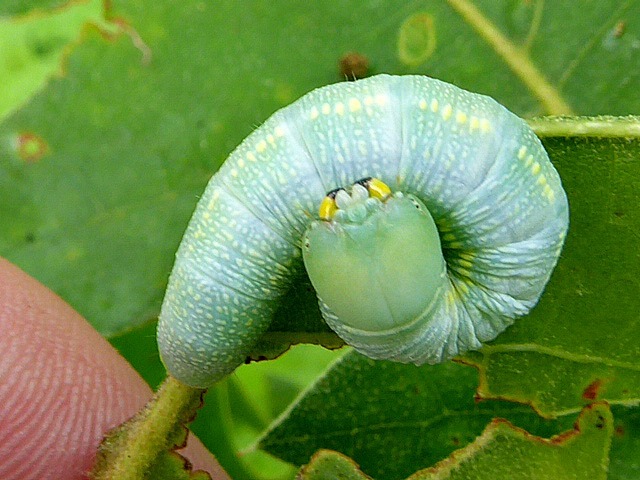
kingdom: Animalia
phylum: Arthropoda
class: Insecta
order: Lepidoptera
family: Notodontidae
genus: Nadata
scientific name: Nadata gibbosa
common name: White-dotted prominent
